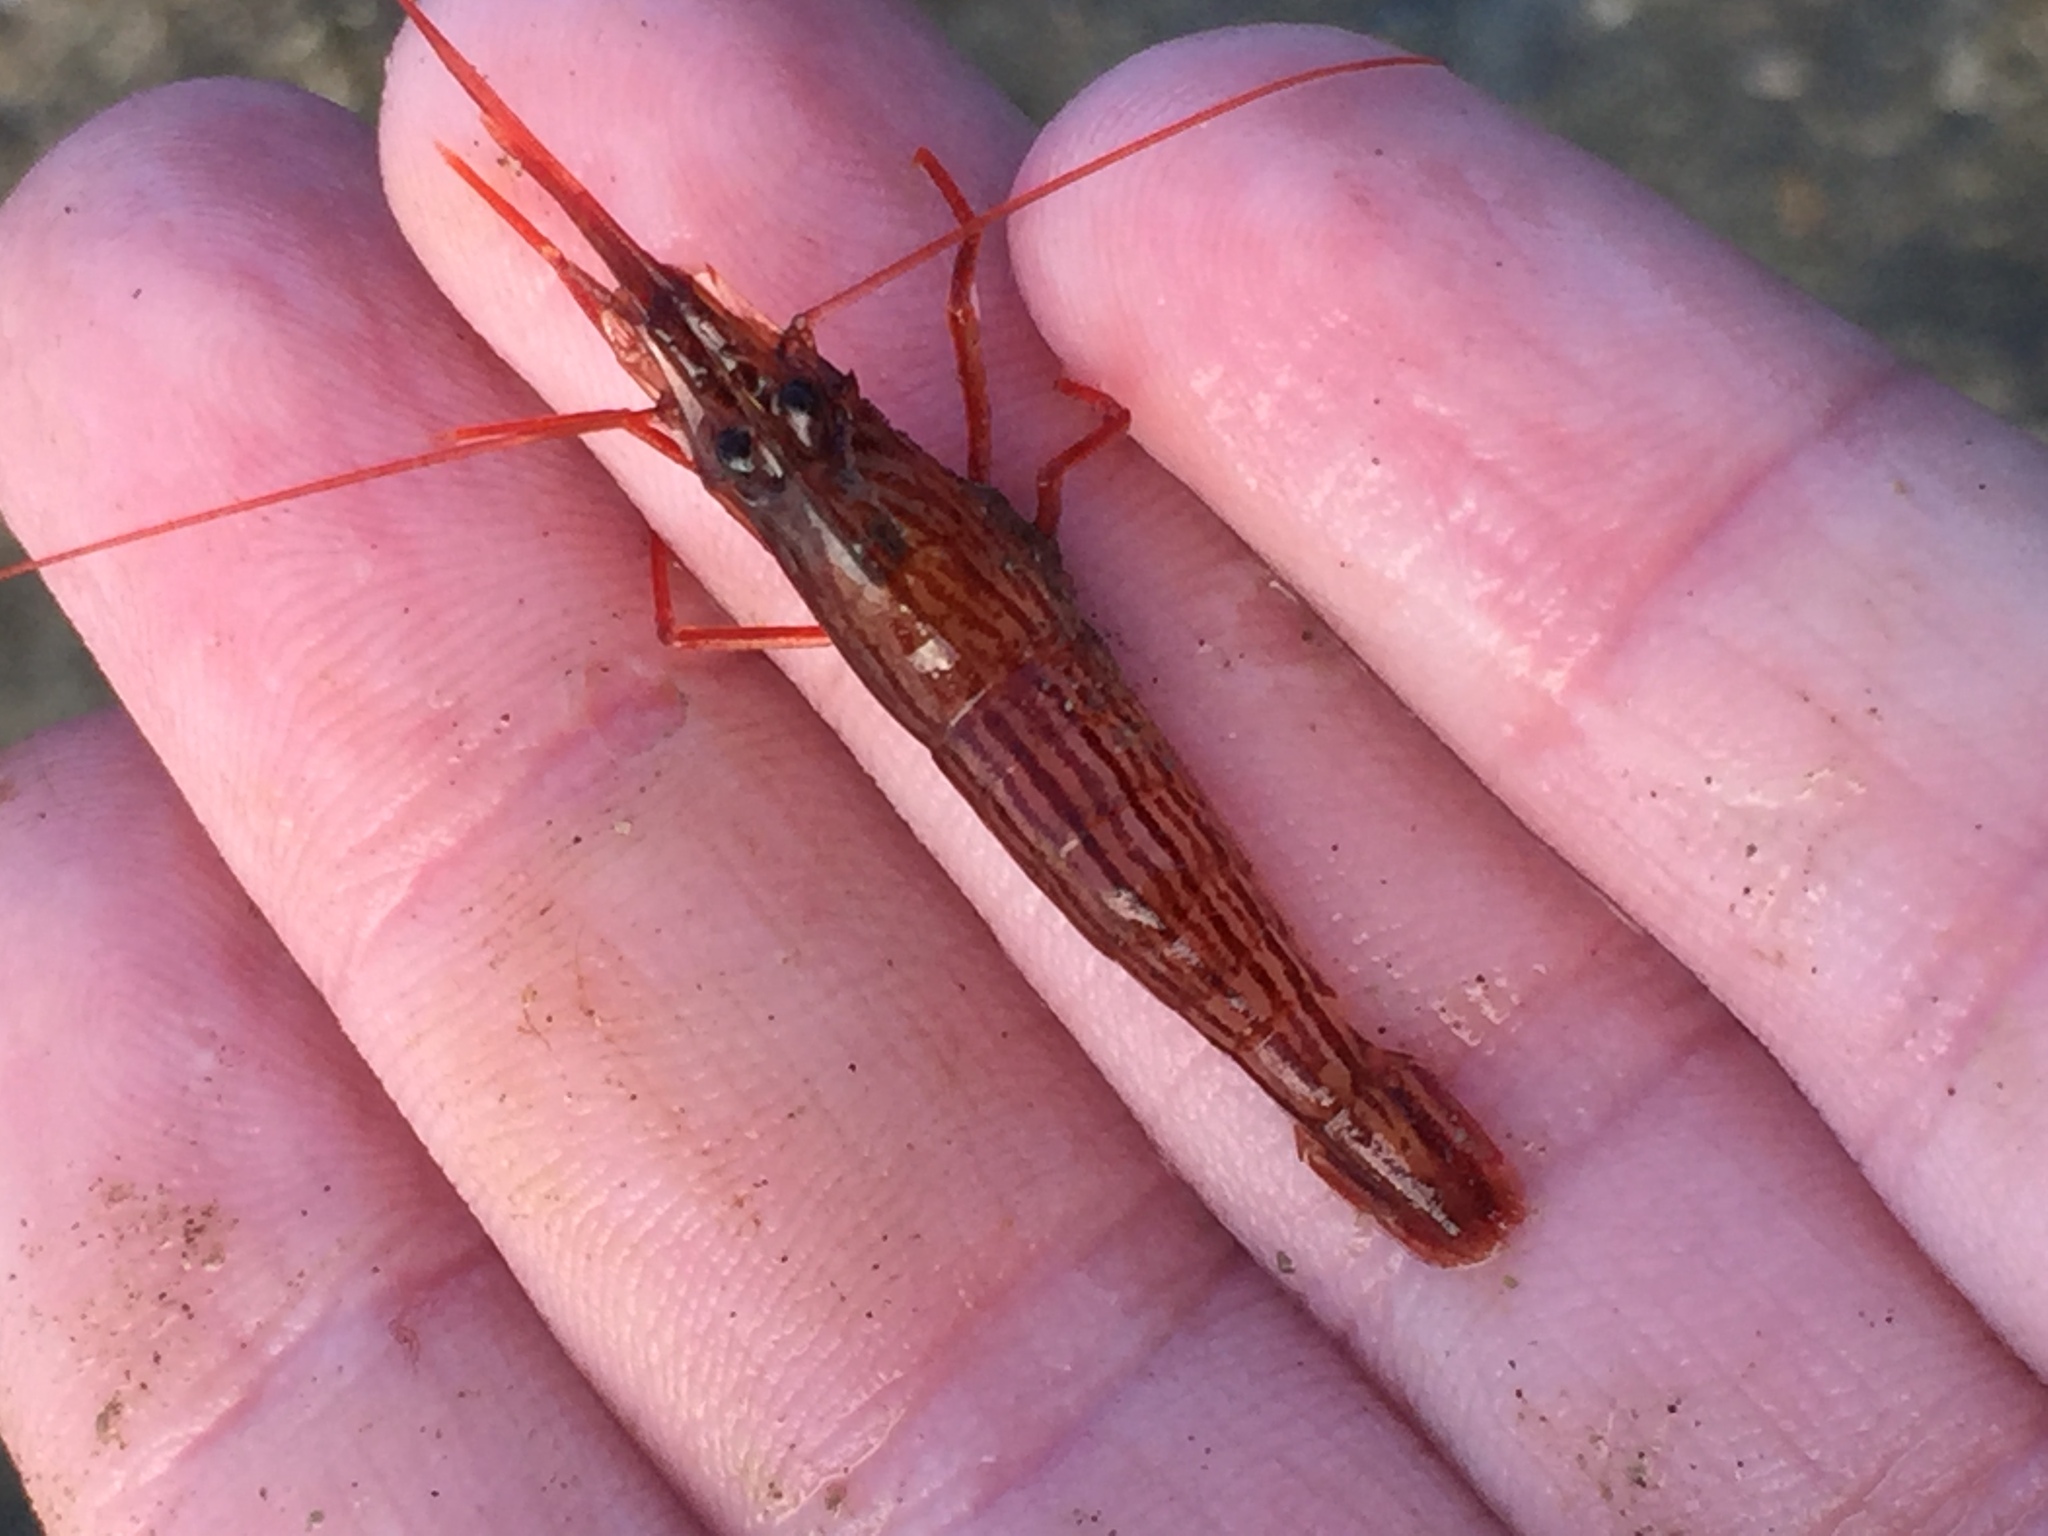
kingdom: Animalia
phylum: Arthropoda
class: Malacostraca
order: Decapoda
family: Lysmatidae
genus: Lysmata
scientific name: Lysmata vittata
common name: Indian lined shrimp
